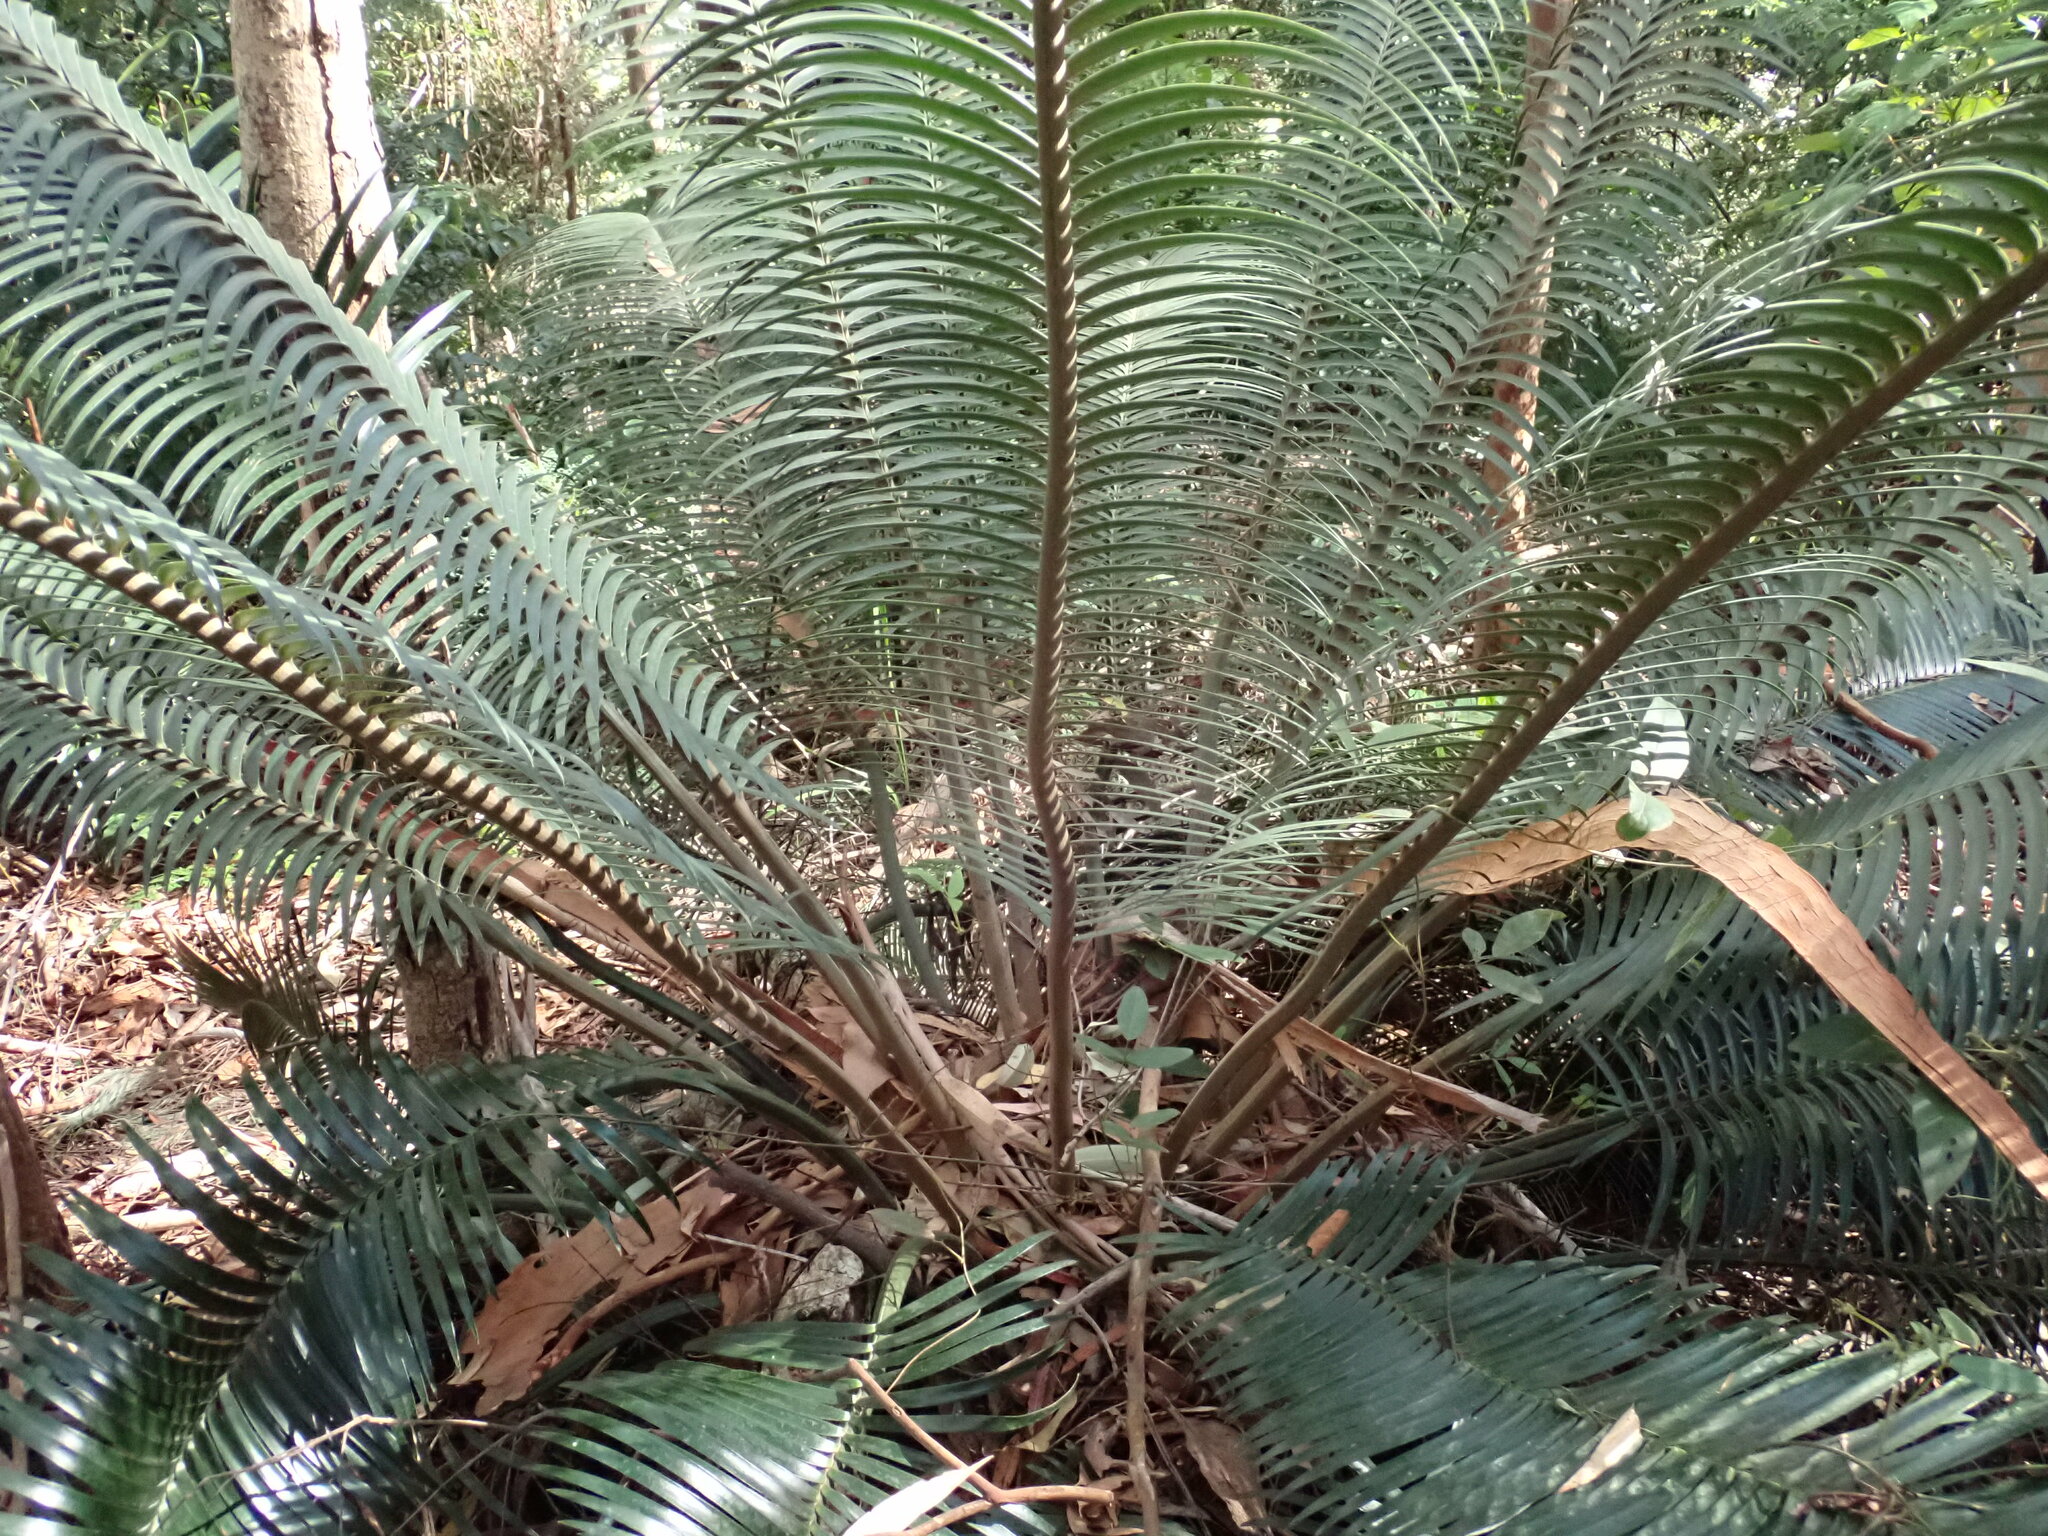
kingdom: Plantae
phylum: Tracheophyta
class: Cycadopsida
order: Cycadales
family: Zamiaceae
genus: Lepidozamia
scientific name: Lepidozamia peroffskyana
